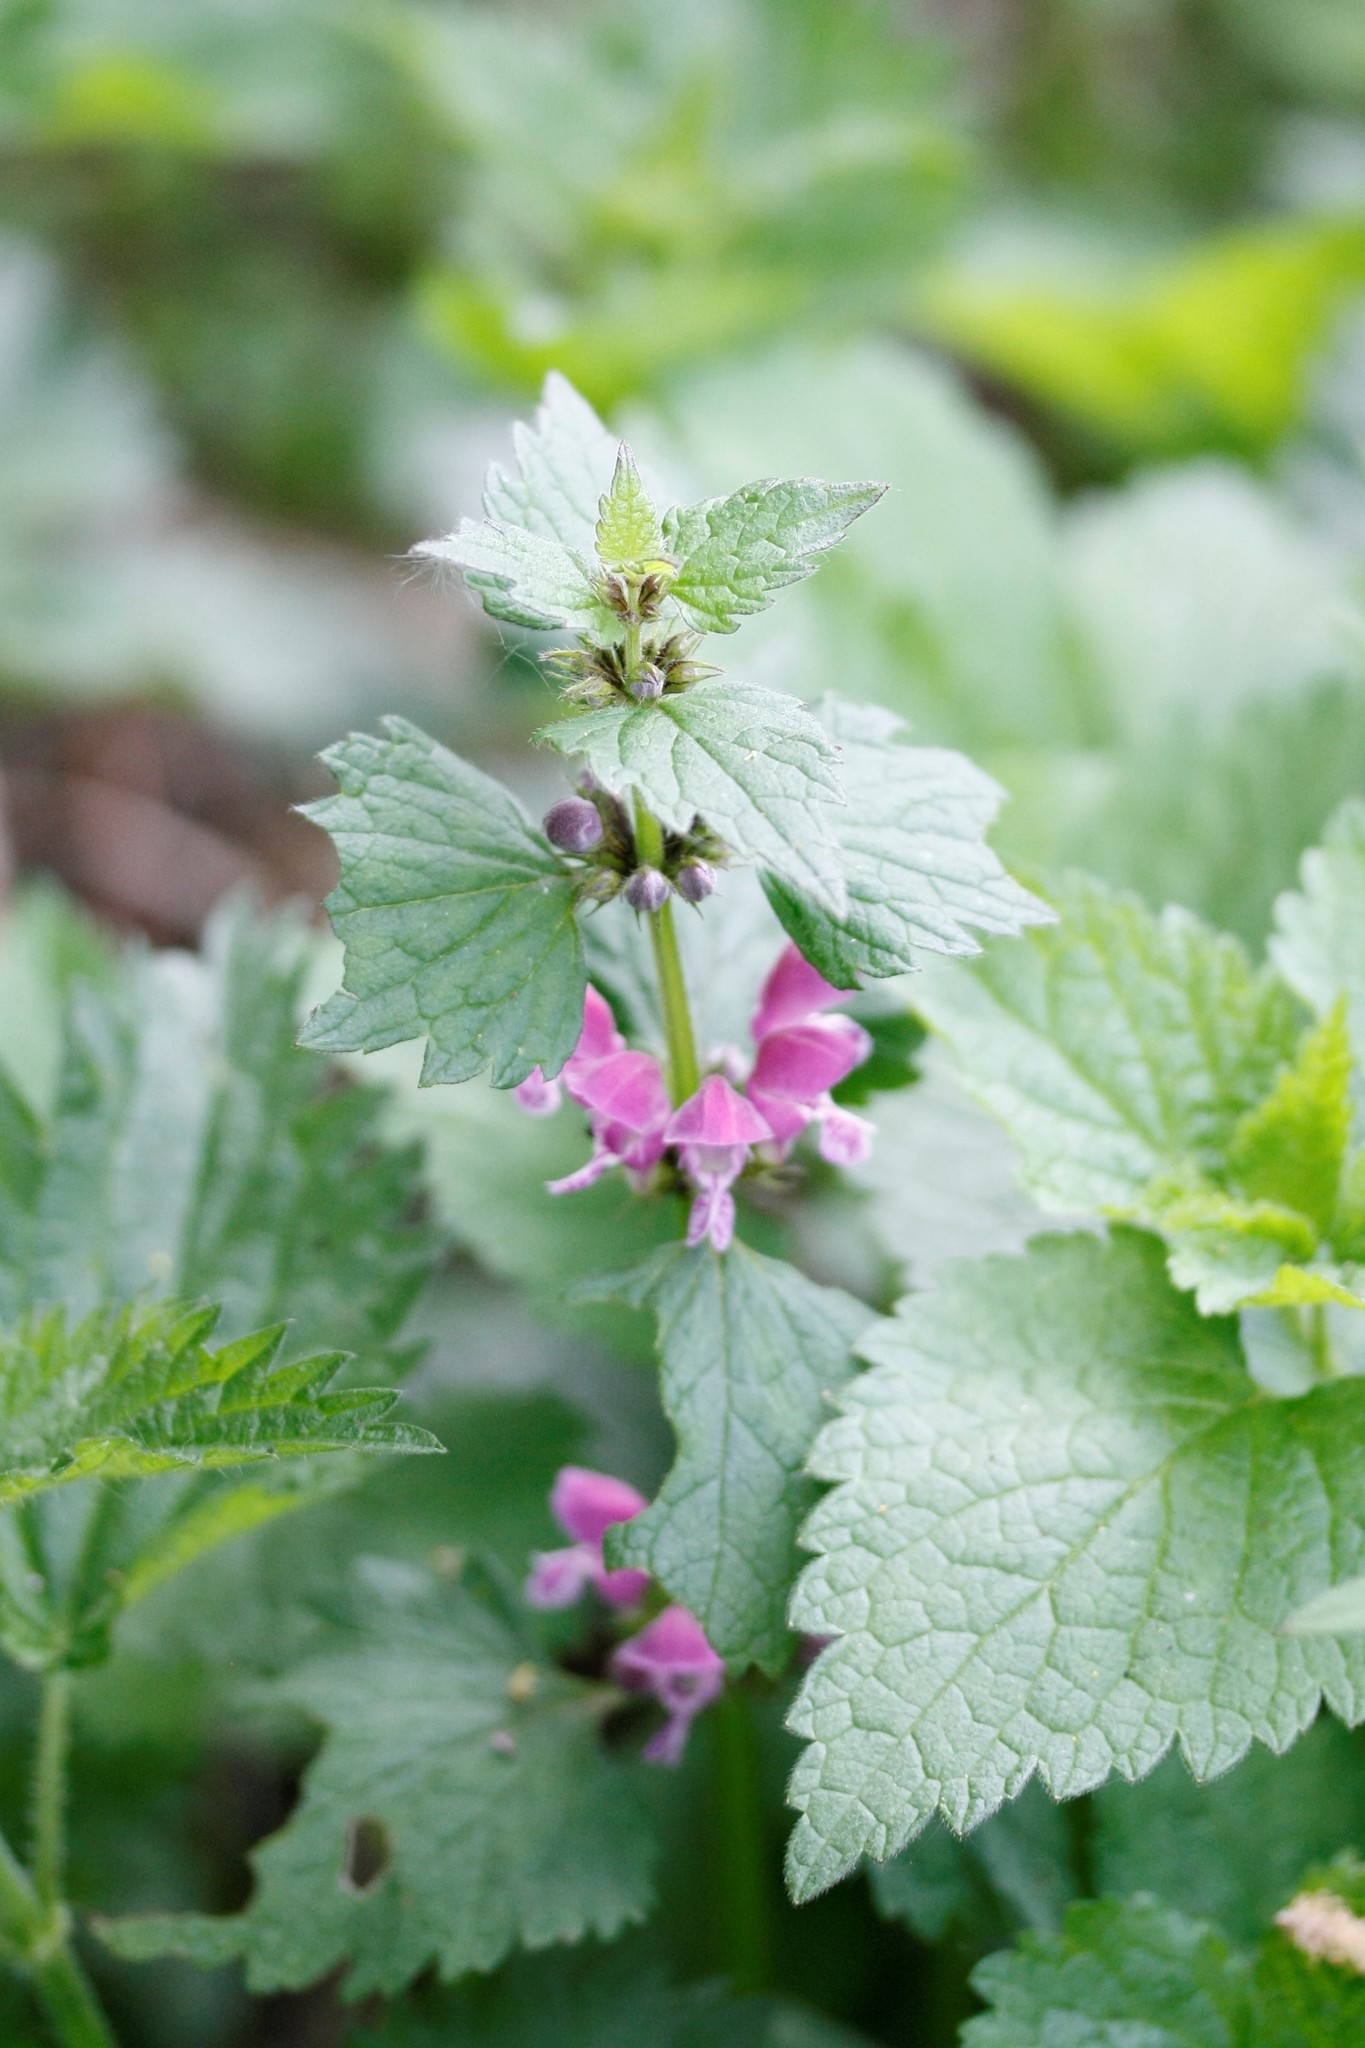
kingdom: Plantae
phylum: Tracheophyta
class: Magnoliopsida
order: Lamiales
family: Lamiaceae
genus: Lamium
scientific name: Lamium maculatum
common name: Spotted dead-nettle
